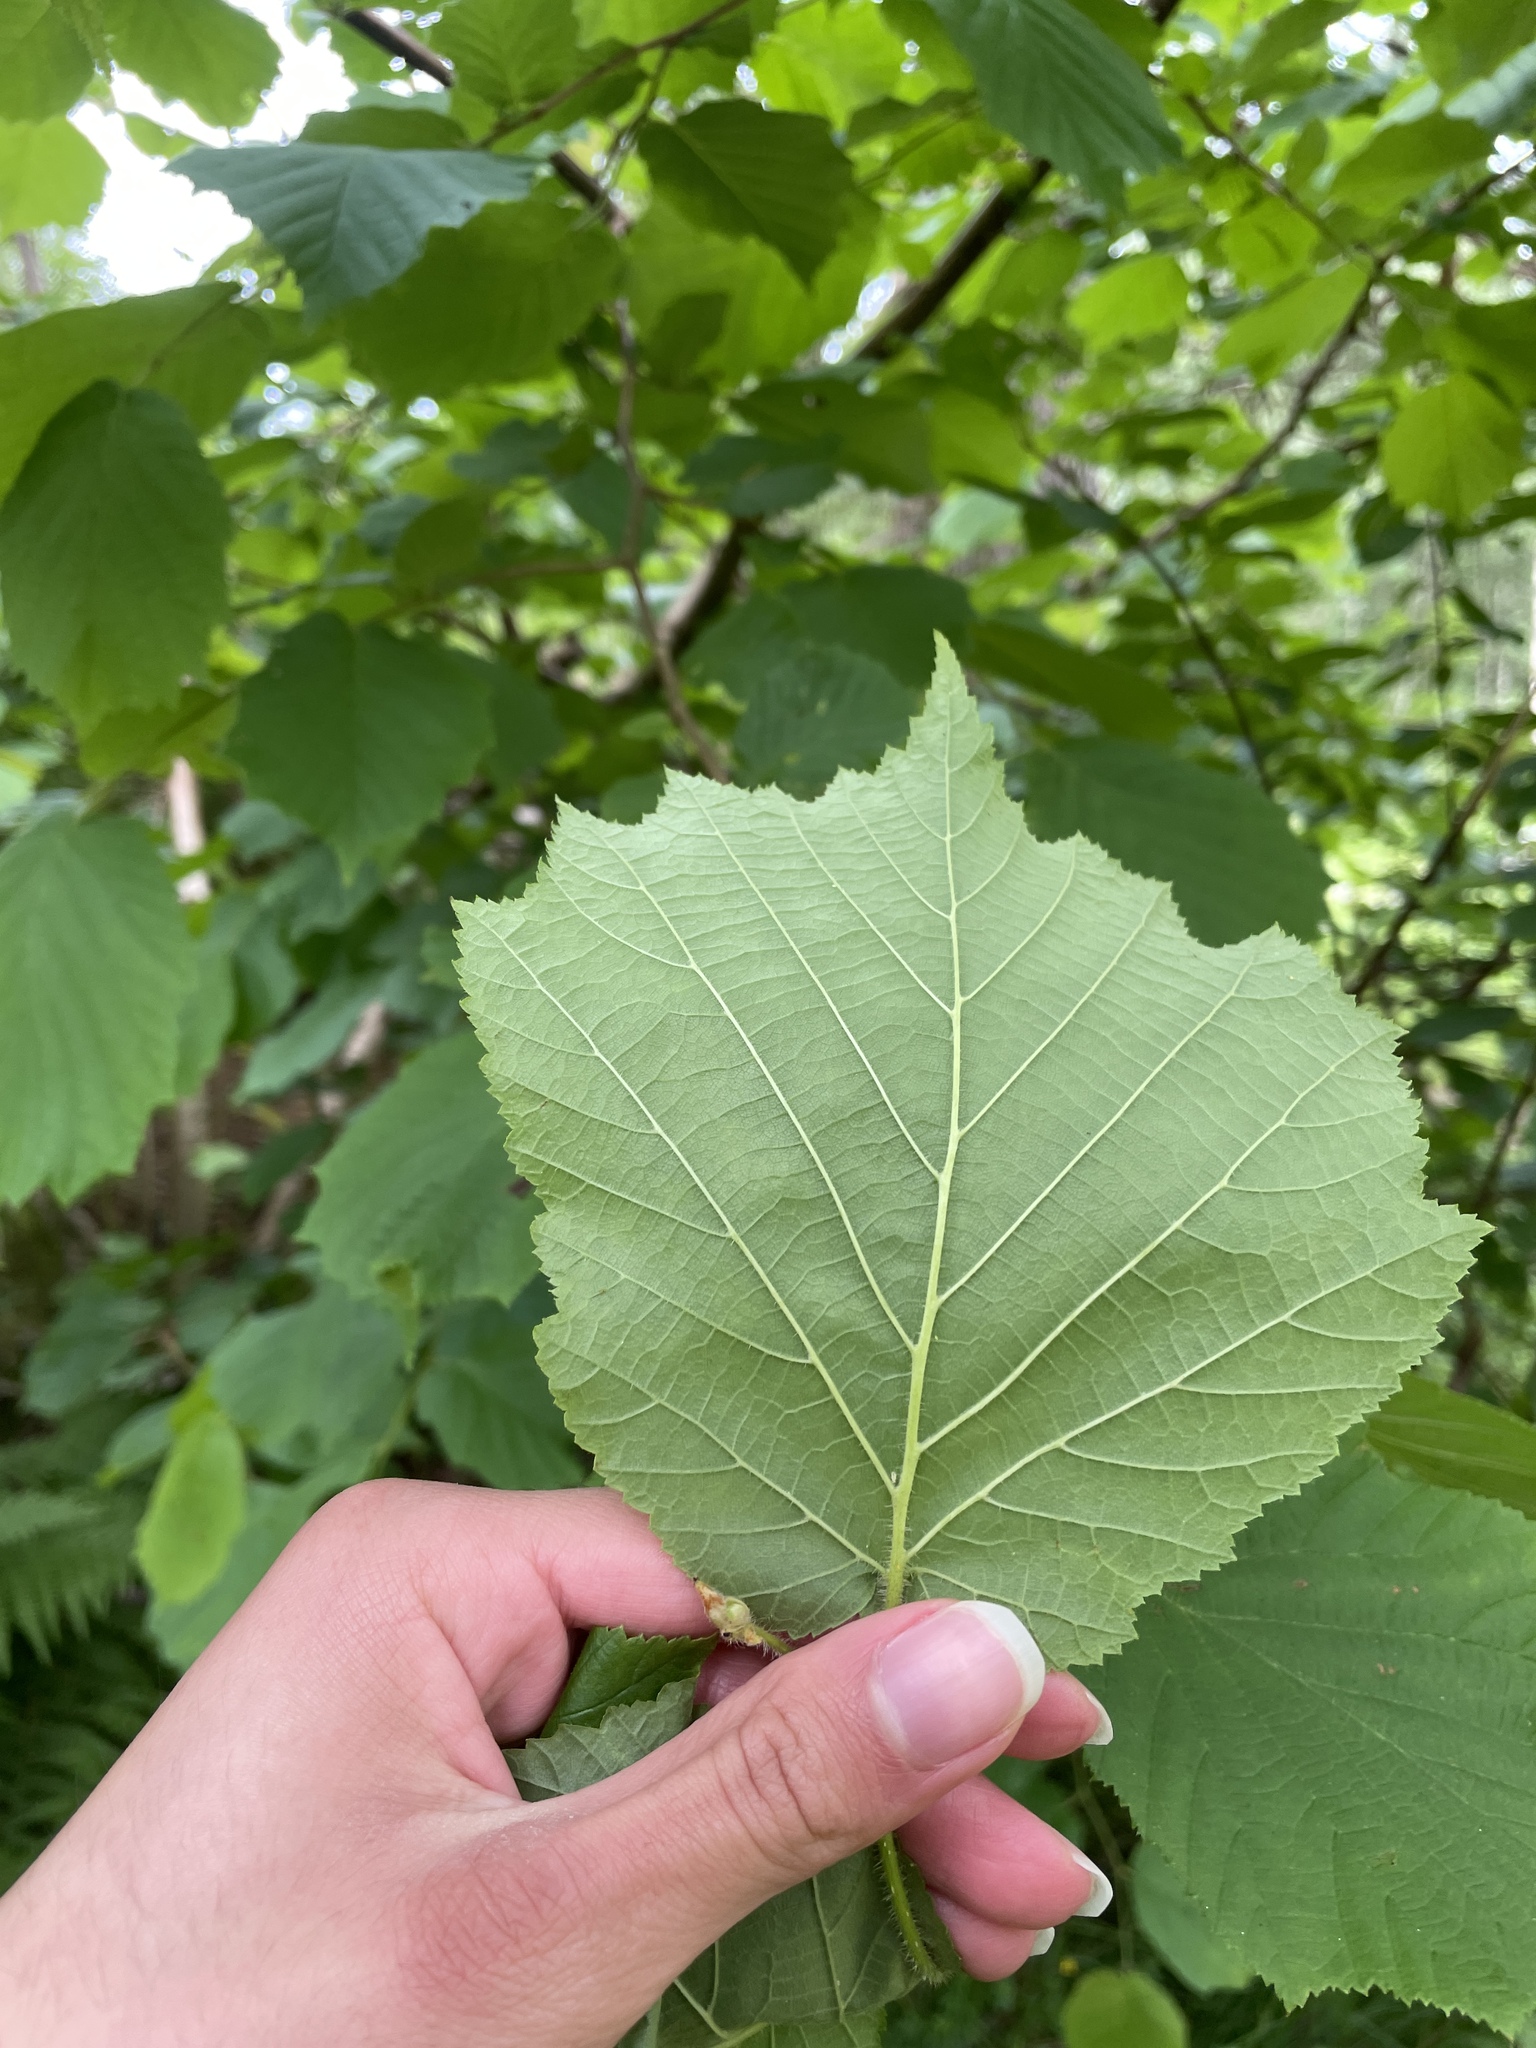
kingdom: Plantae
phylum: Tracheophyta
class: Magnoliopsida
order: Fagales
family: Betulaceae
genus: Corylus
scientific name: Corylus avellana
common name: European hazel
